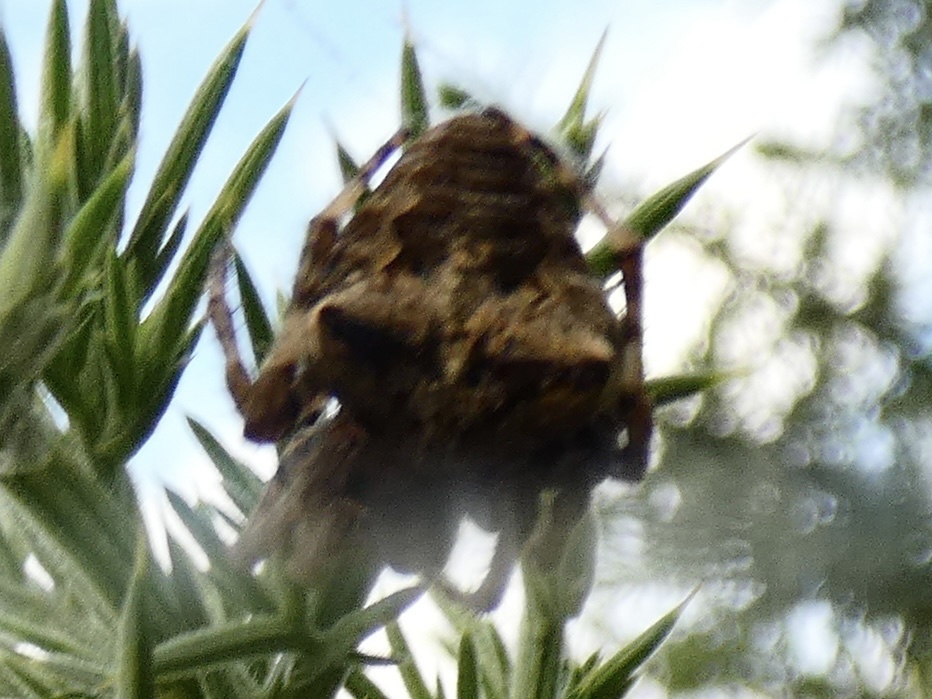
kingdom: Animalia
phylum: Arthropoda
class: Arachnida
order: Araneae
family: Araneidae
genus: Araneus
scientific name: Araneus angulatus
